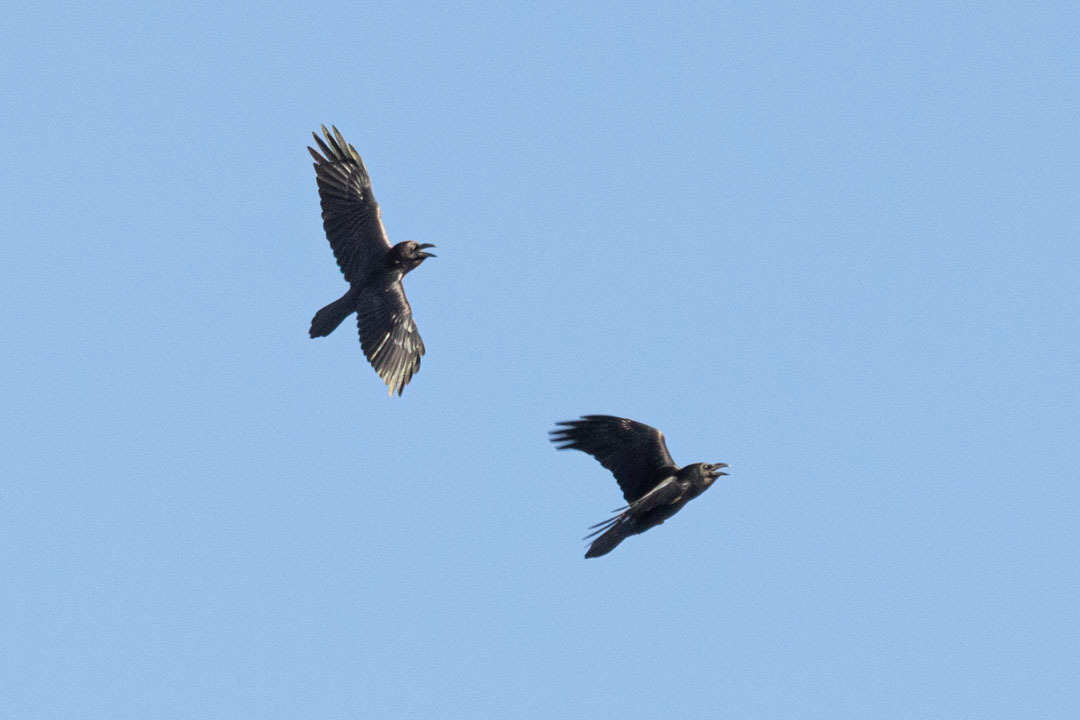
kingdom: Animalia
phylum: Chordata
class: Aves
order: Passeriformes
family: Corvidae
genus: Corvus
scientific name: Corvus corax
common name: Common raven
